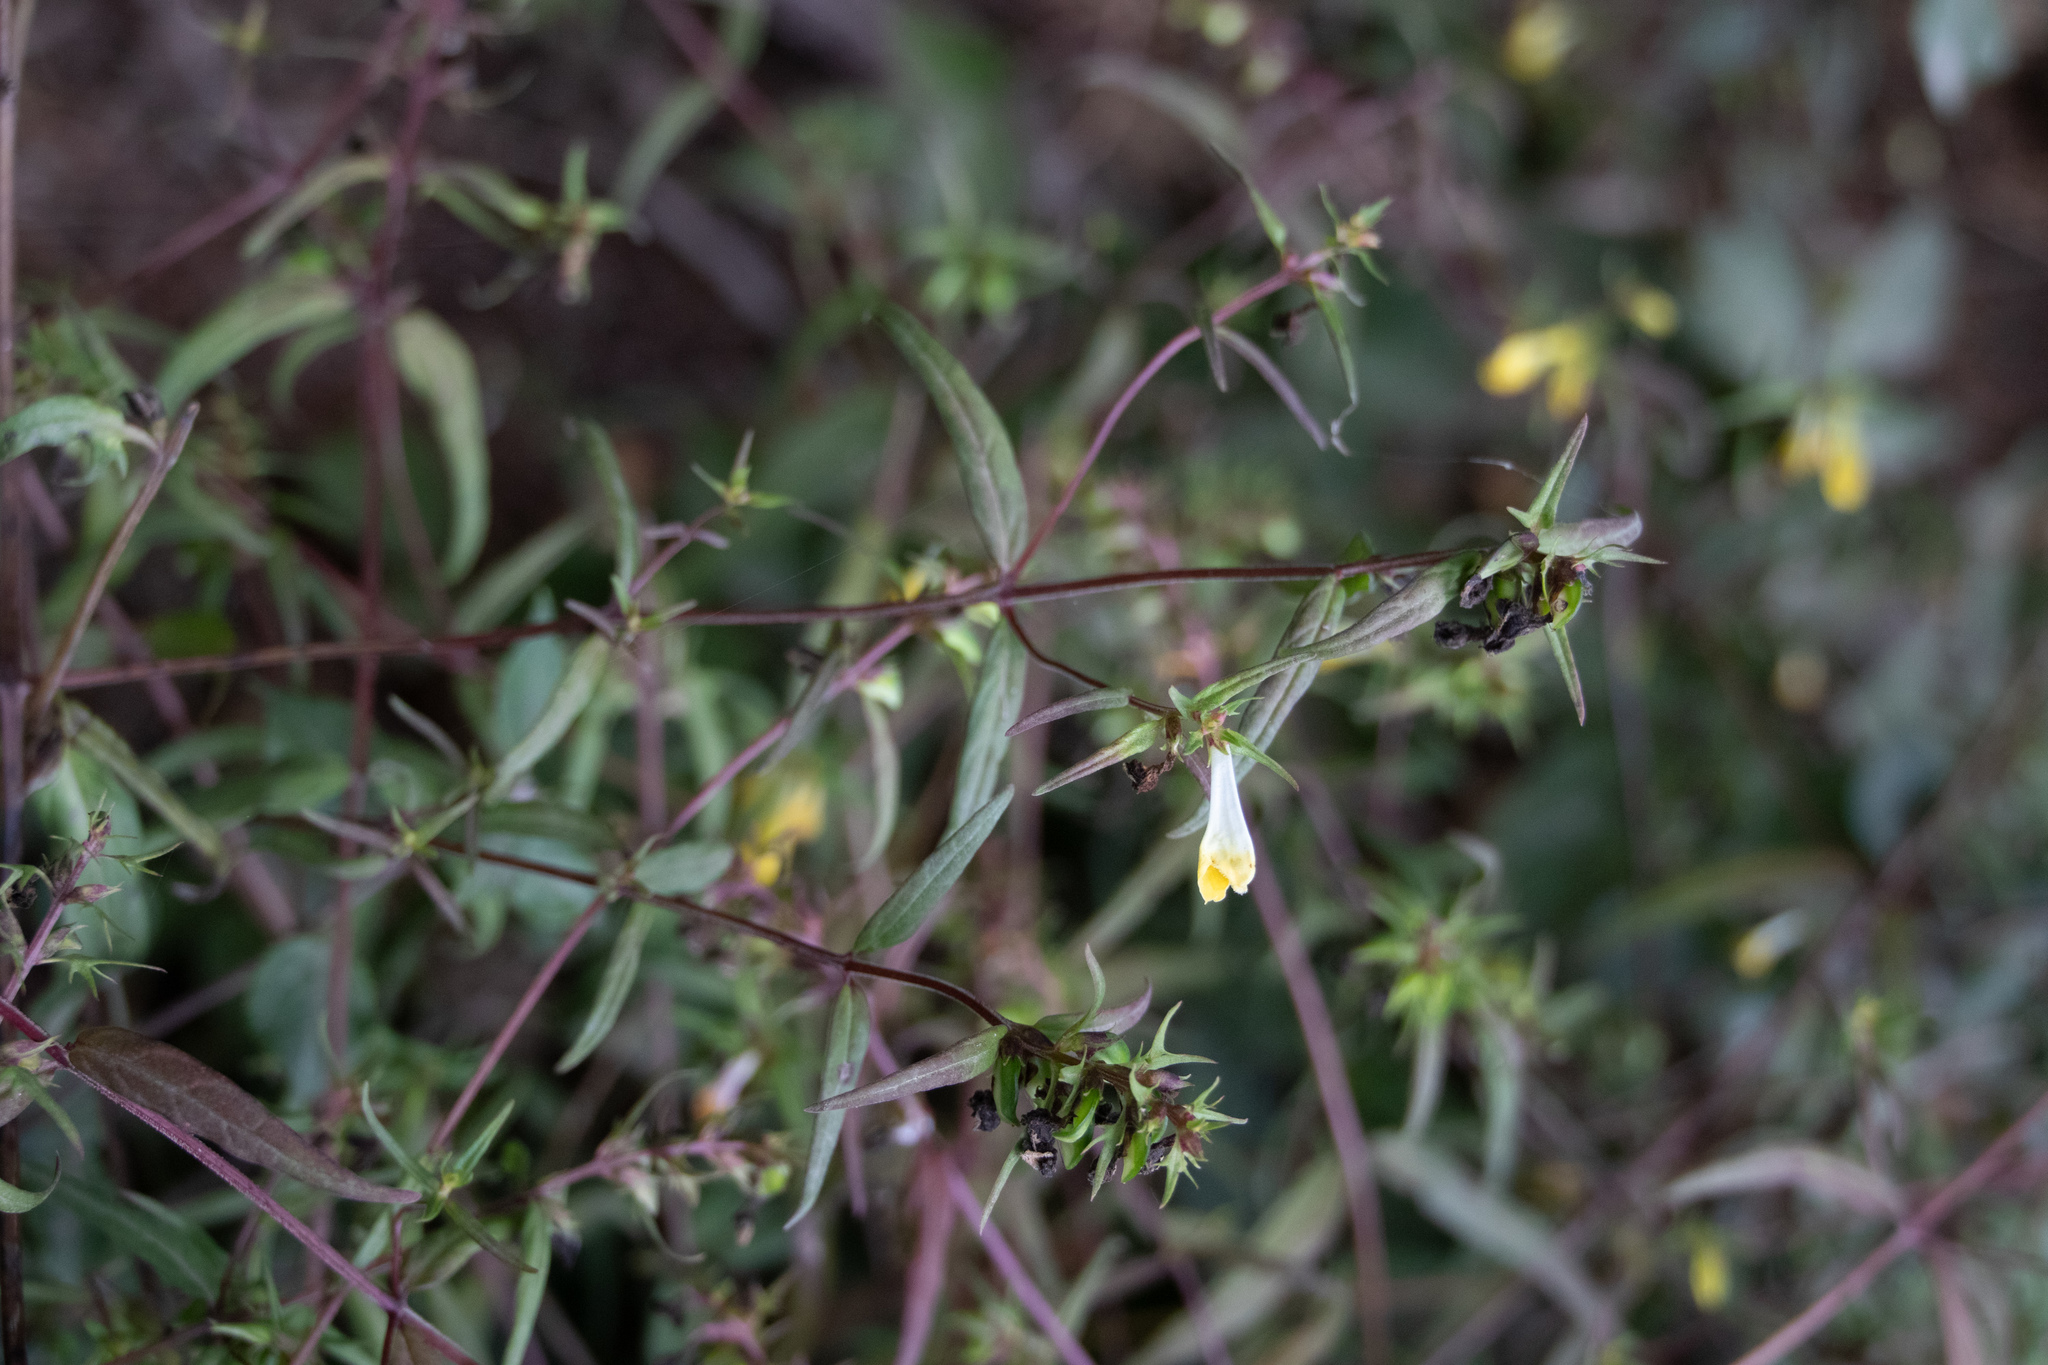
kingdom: Plantae
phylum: Tracheophyta
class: Magnoliopsida
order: Lamiales
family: Orobanchaceae
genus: Melampyrum
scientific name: Melampyrum pratense
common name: Common cow-wheat
